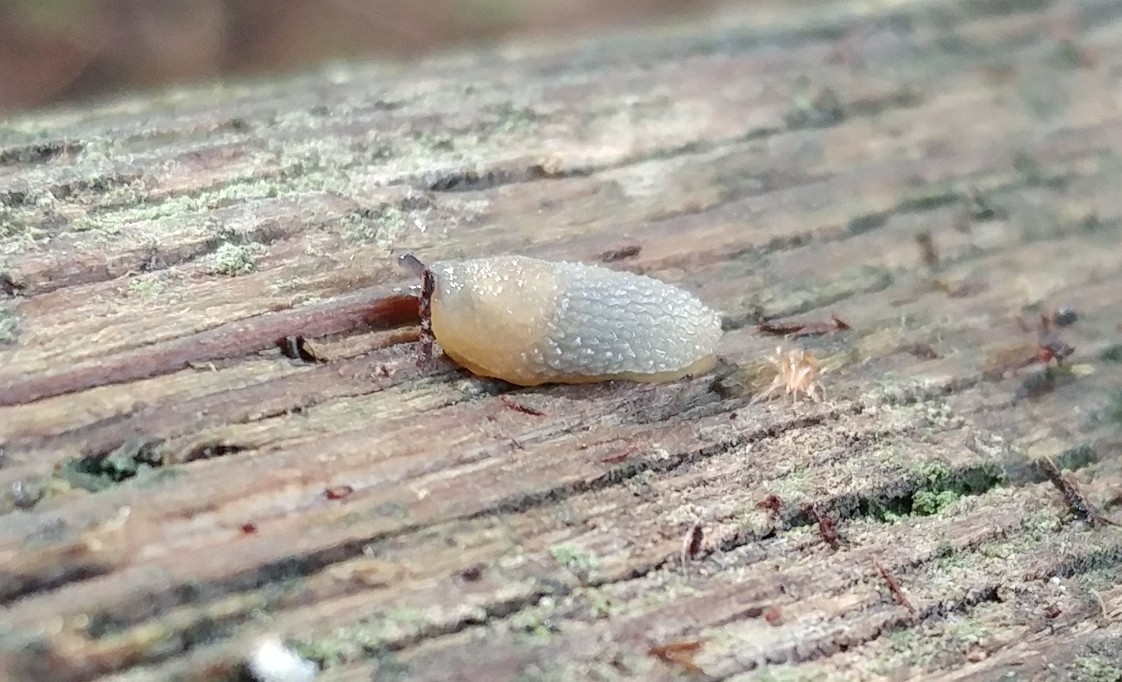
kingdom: Animalia
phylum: Mollusca
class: Gastropoda
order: Stylommatophora
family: Arionidae
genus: Arion
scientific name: Arion intermedius
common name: Hedgehog slug
